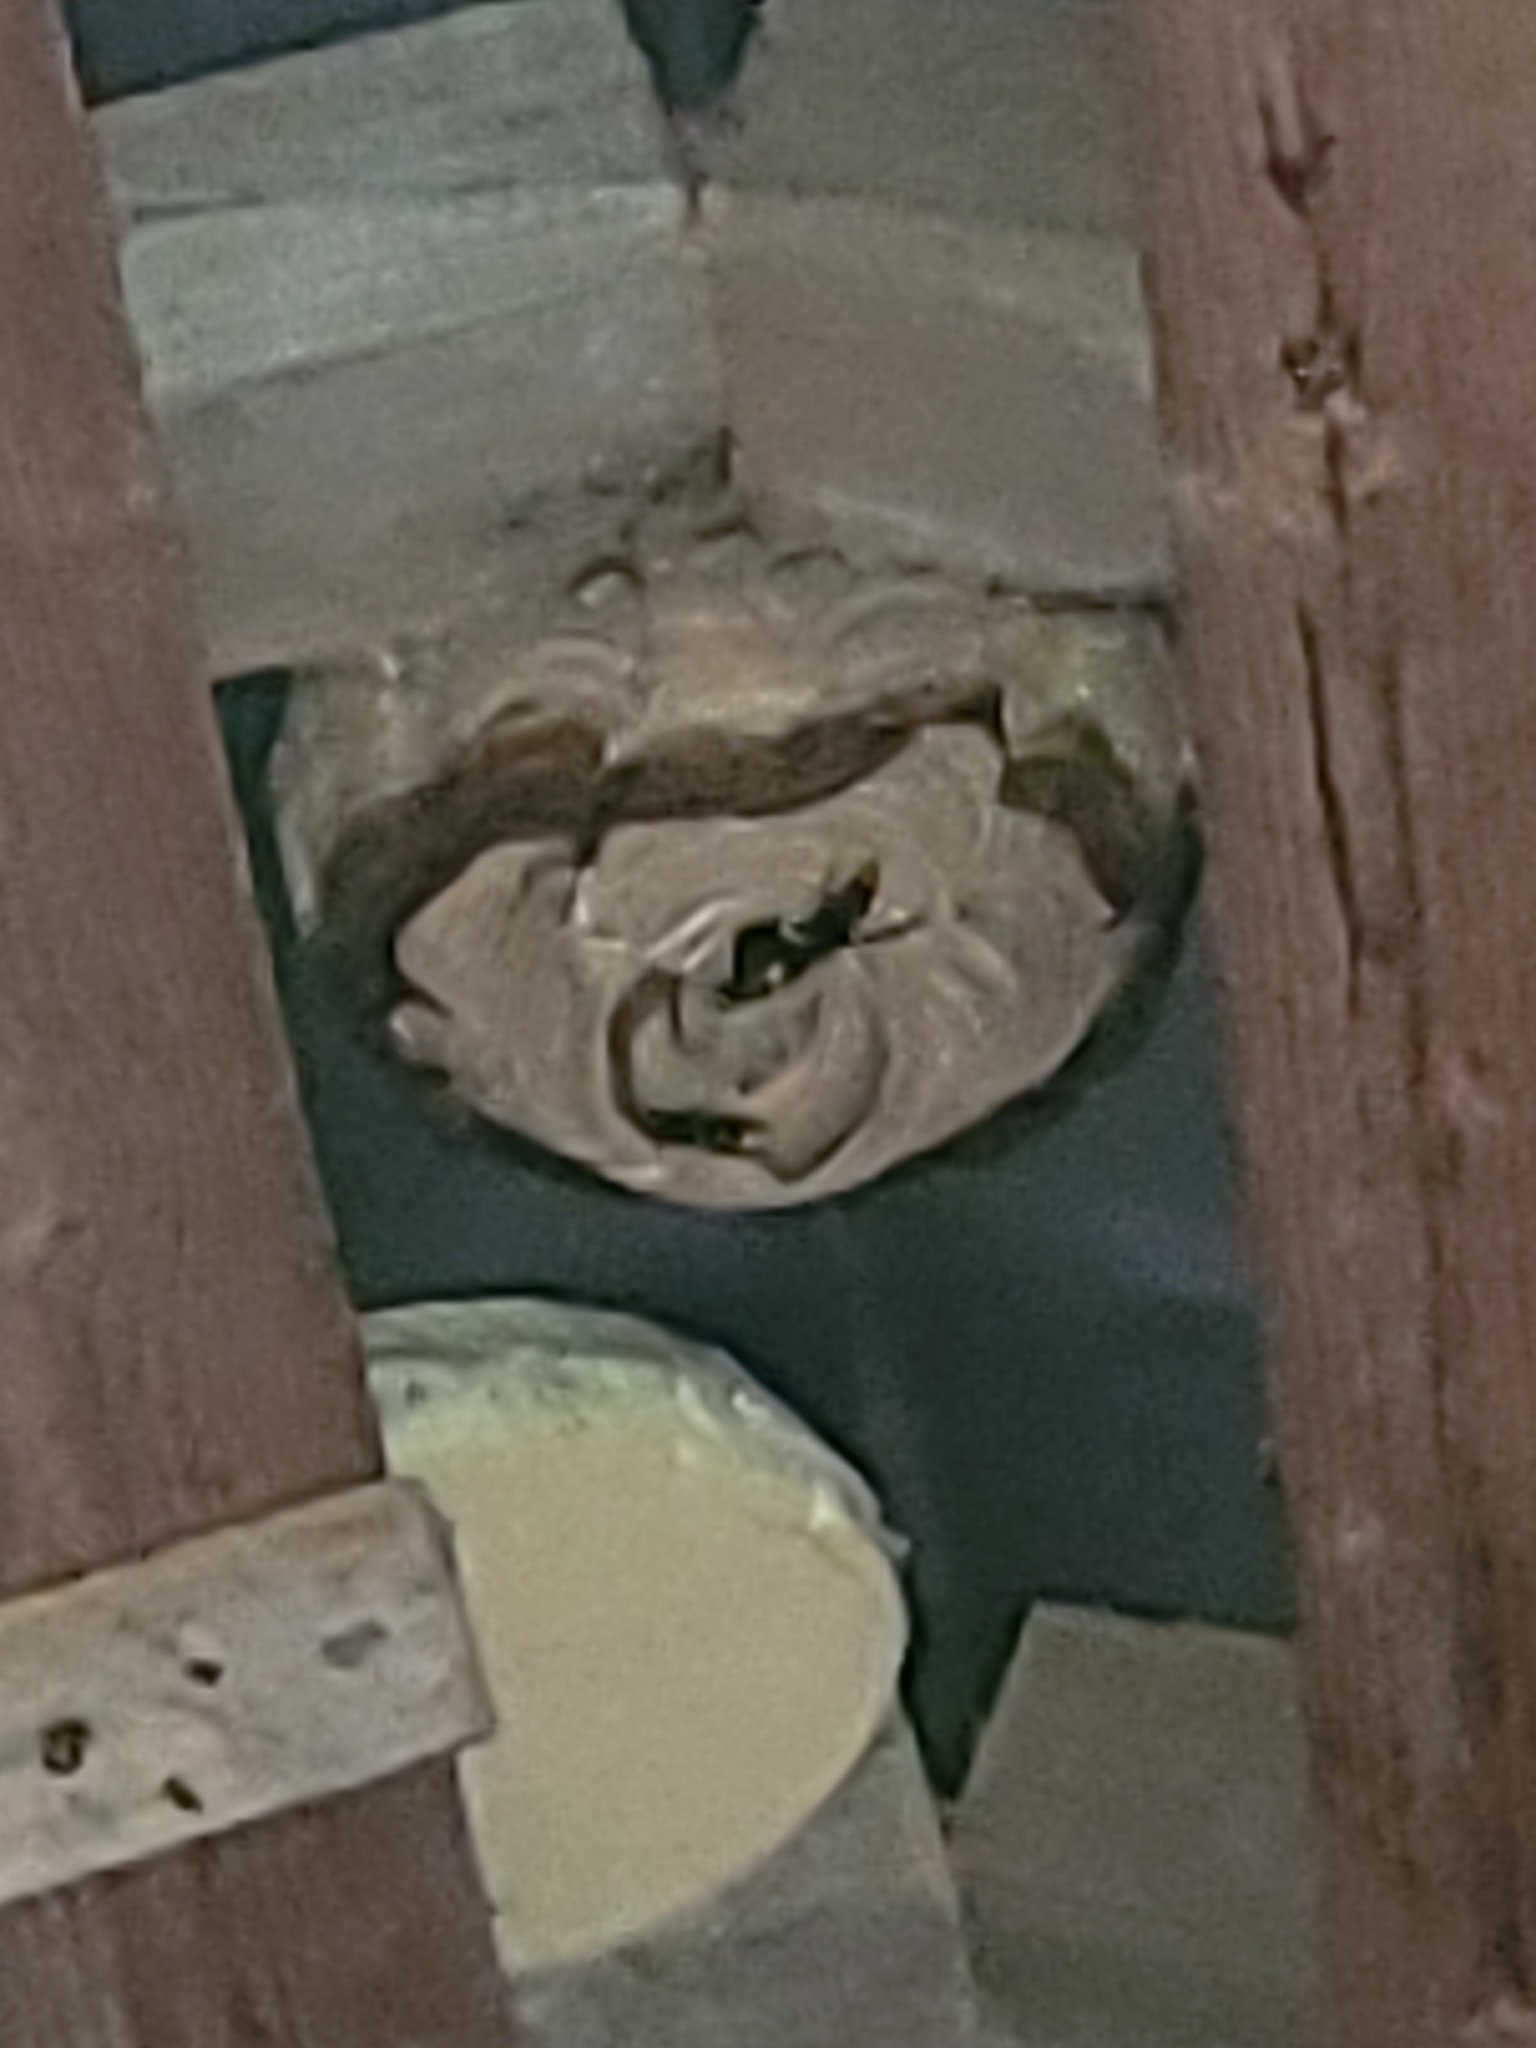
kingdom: Animalia
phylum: Arthropoda
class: Insecta
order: Hymenoptera
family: Vespidae
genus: Vespa
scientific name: Vespa velutina
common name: Asian hornet
